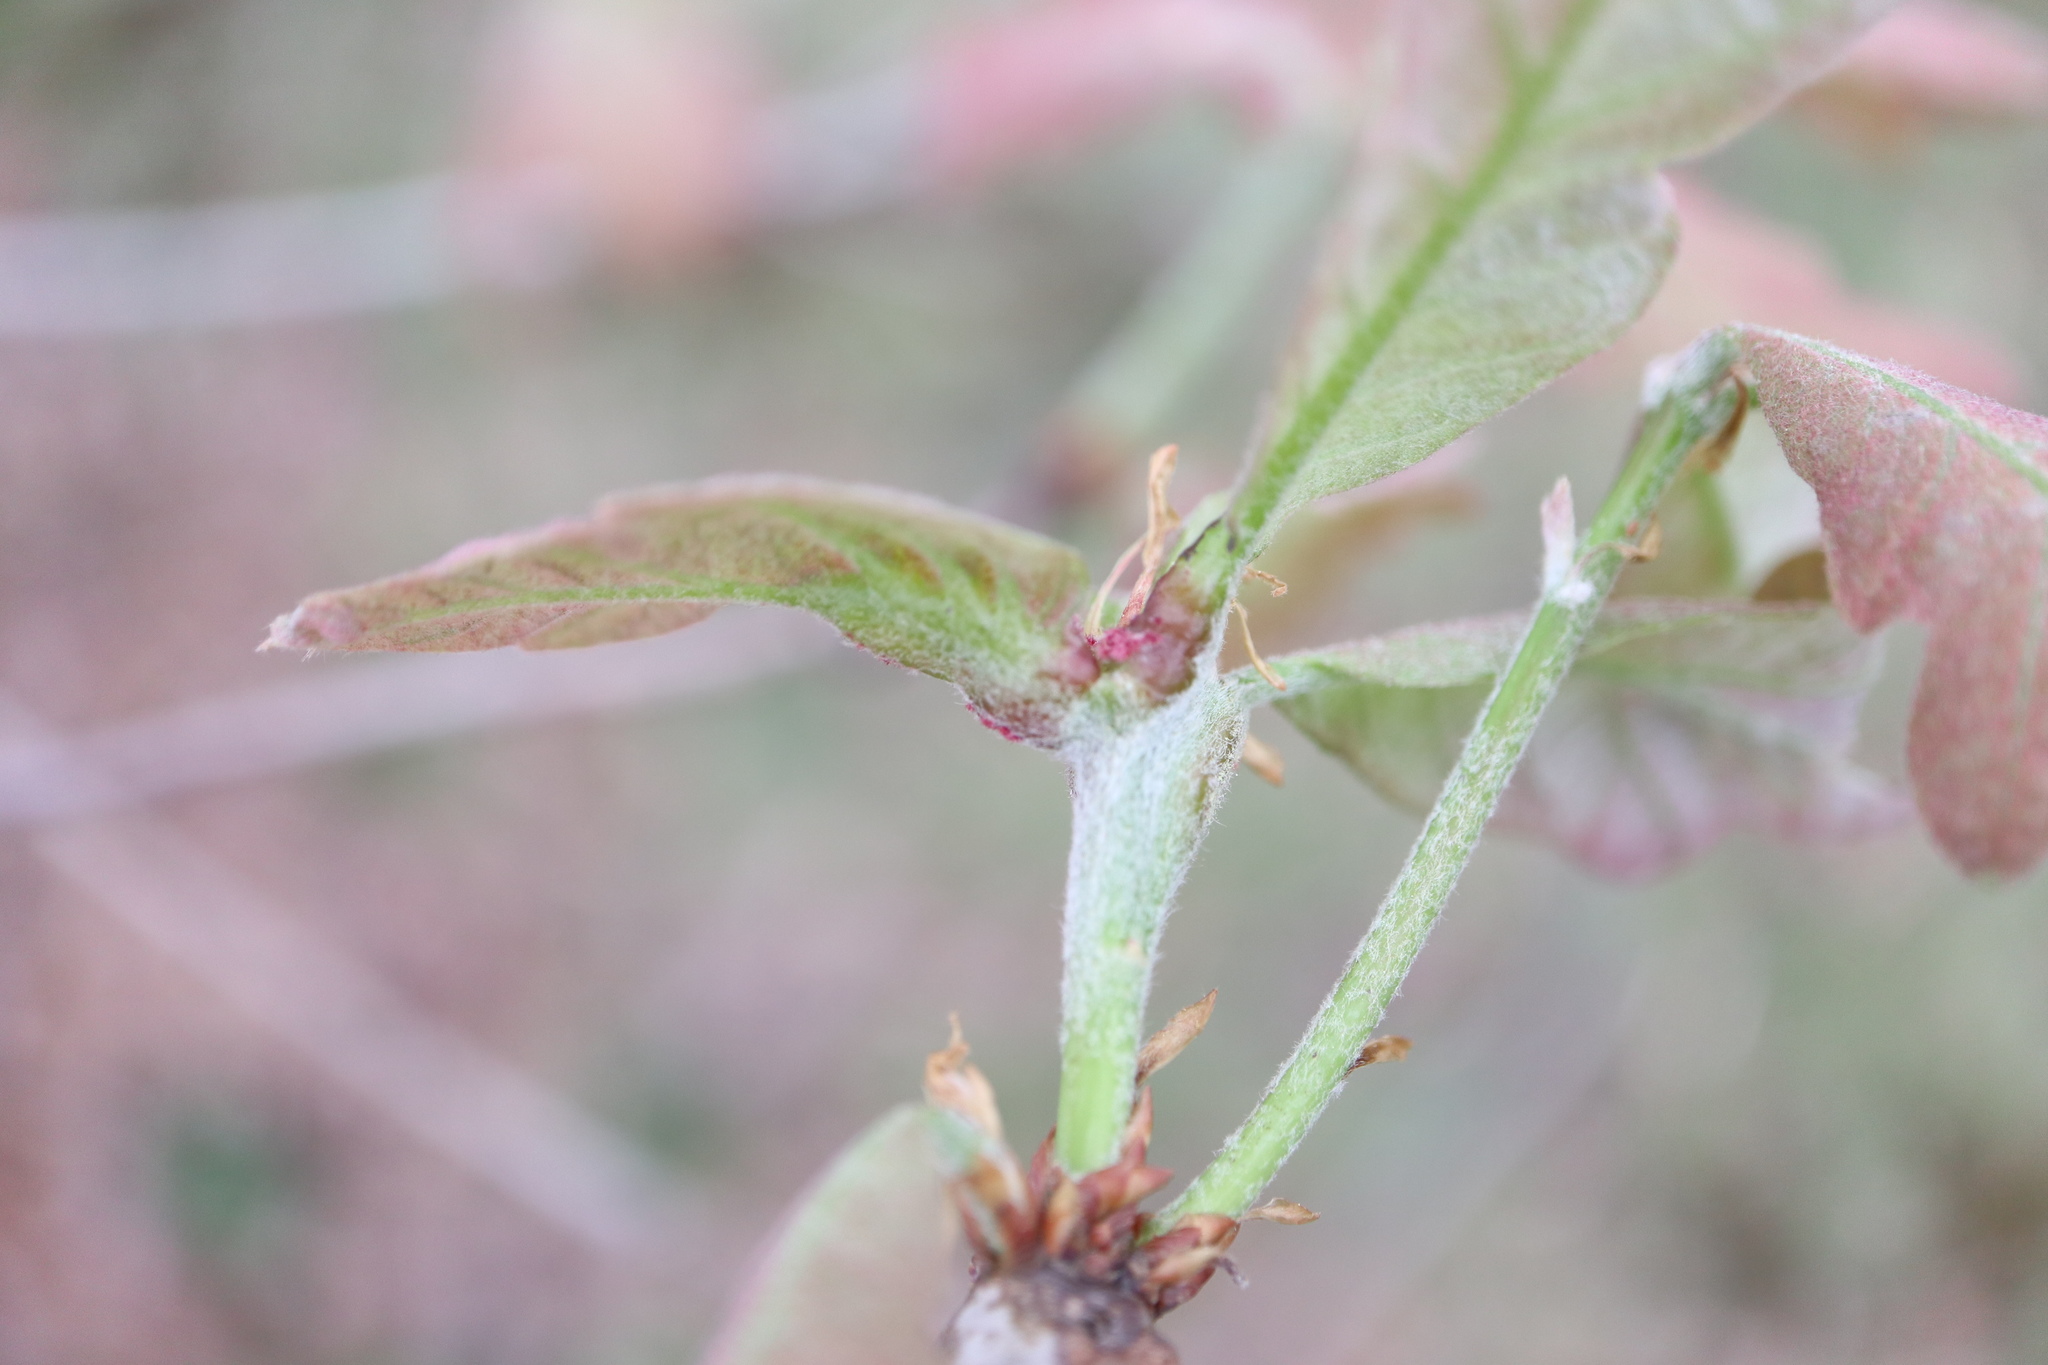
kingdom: Animalia
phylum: Arthropoda
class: Insecta
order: Hymenoptera
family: Cynipidae
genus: Neuroterus
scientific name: Neuroterus quercusbaccarum
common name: Common spangle gall
